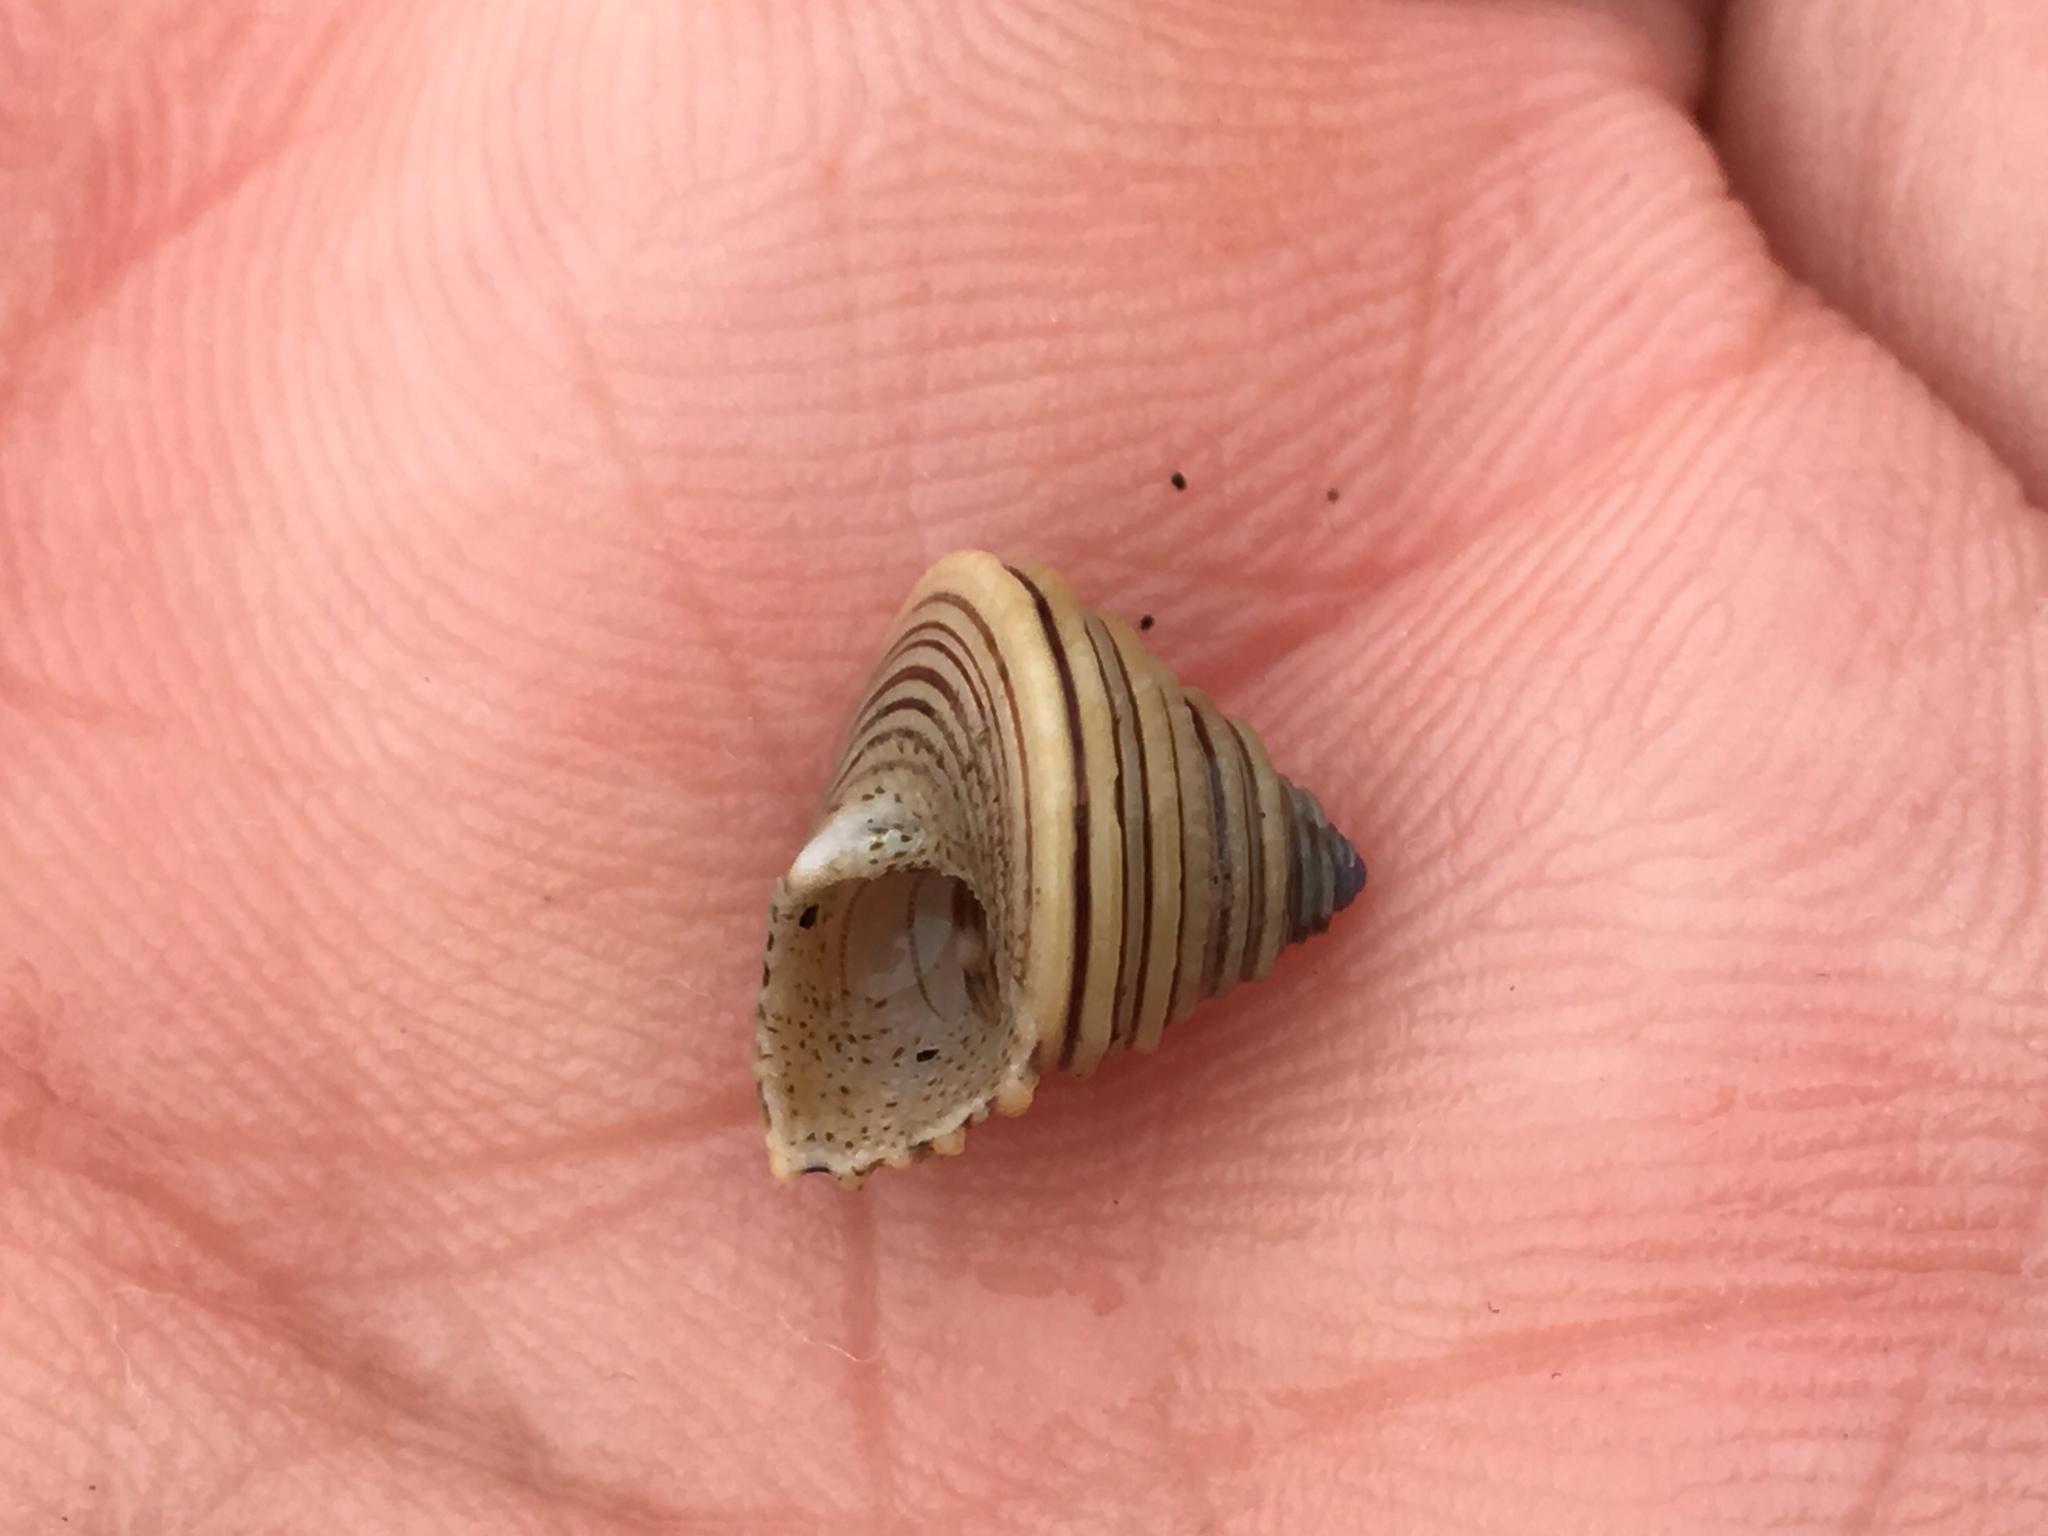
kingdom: Animalia
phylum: Mollusca
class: Gastropoda
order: Trochida
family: Calliostomatidae
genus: Calliostoma
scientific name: Calliostoma canaliculatum
